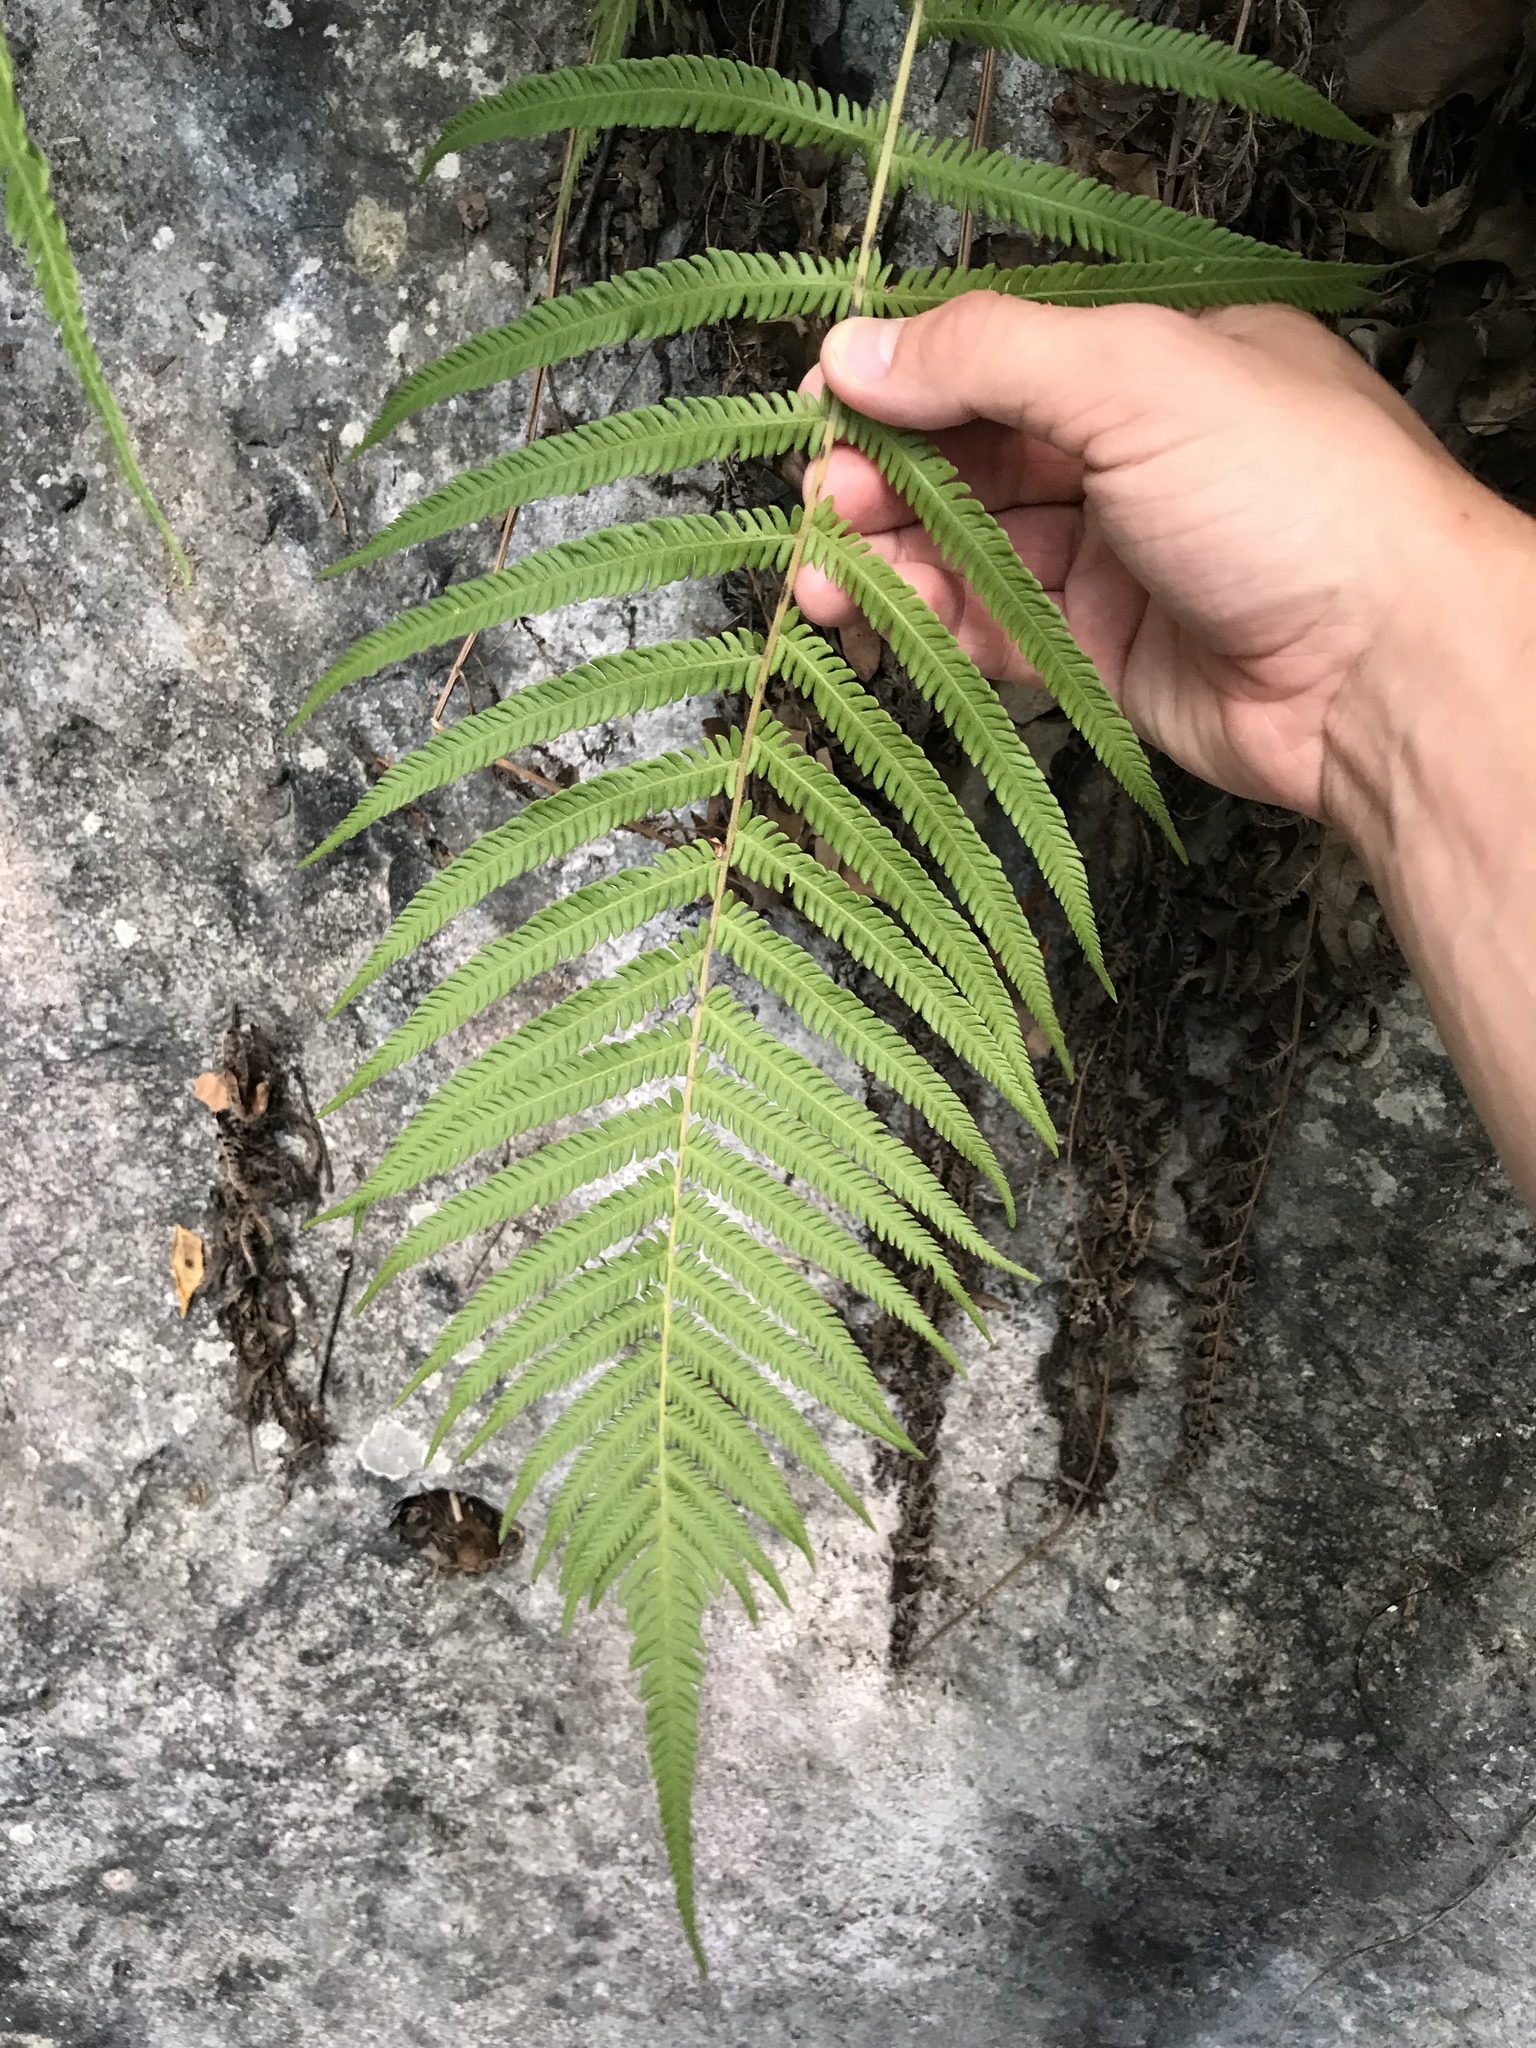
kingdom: Plantae
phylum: Tracheophyta
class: Polypodiopsida
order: Polypodiales
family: Thelypteridaceae
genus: Pelazoneuron
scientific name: Pelazoneuron ovatum
